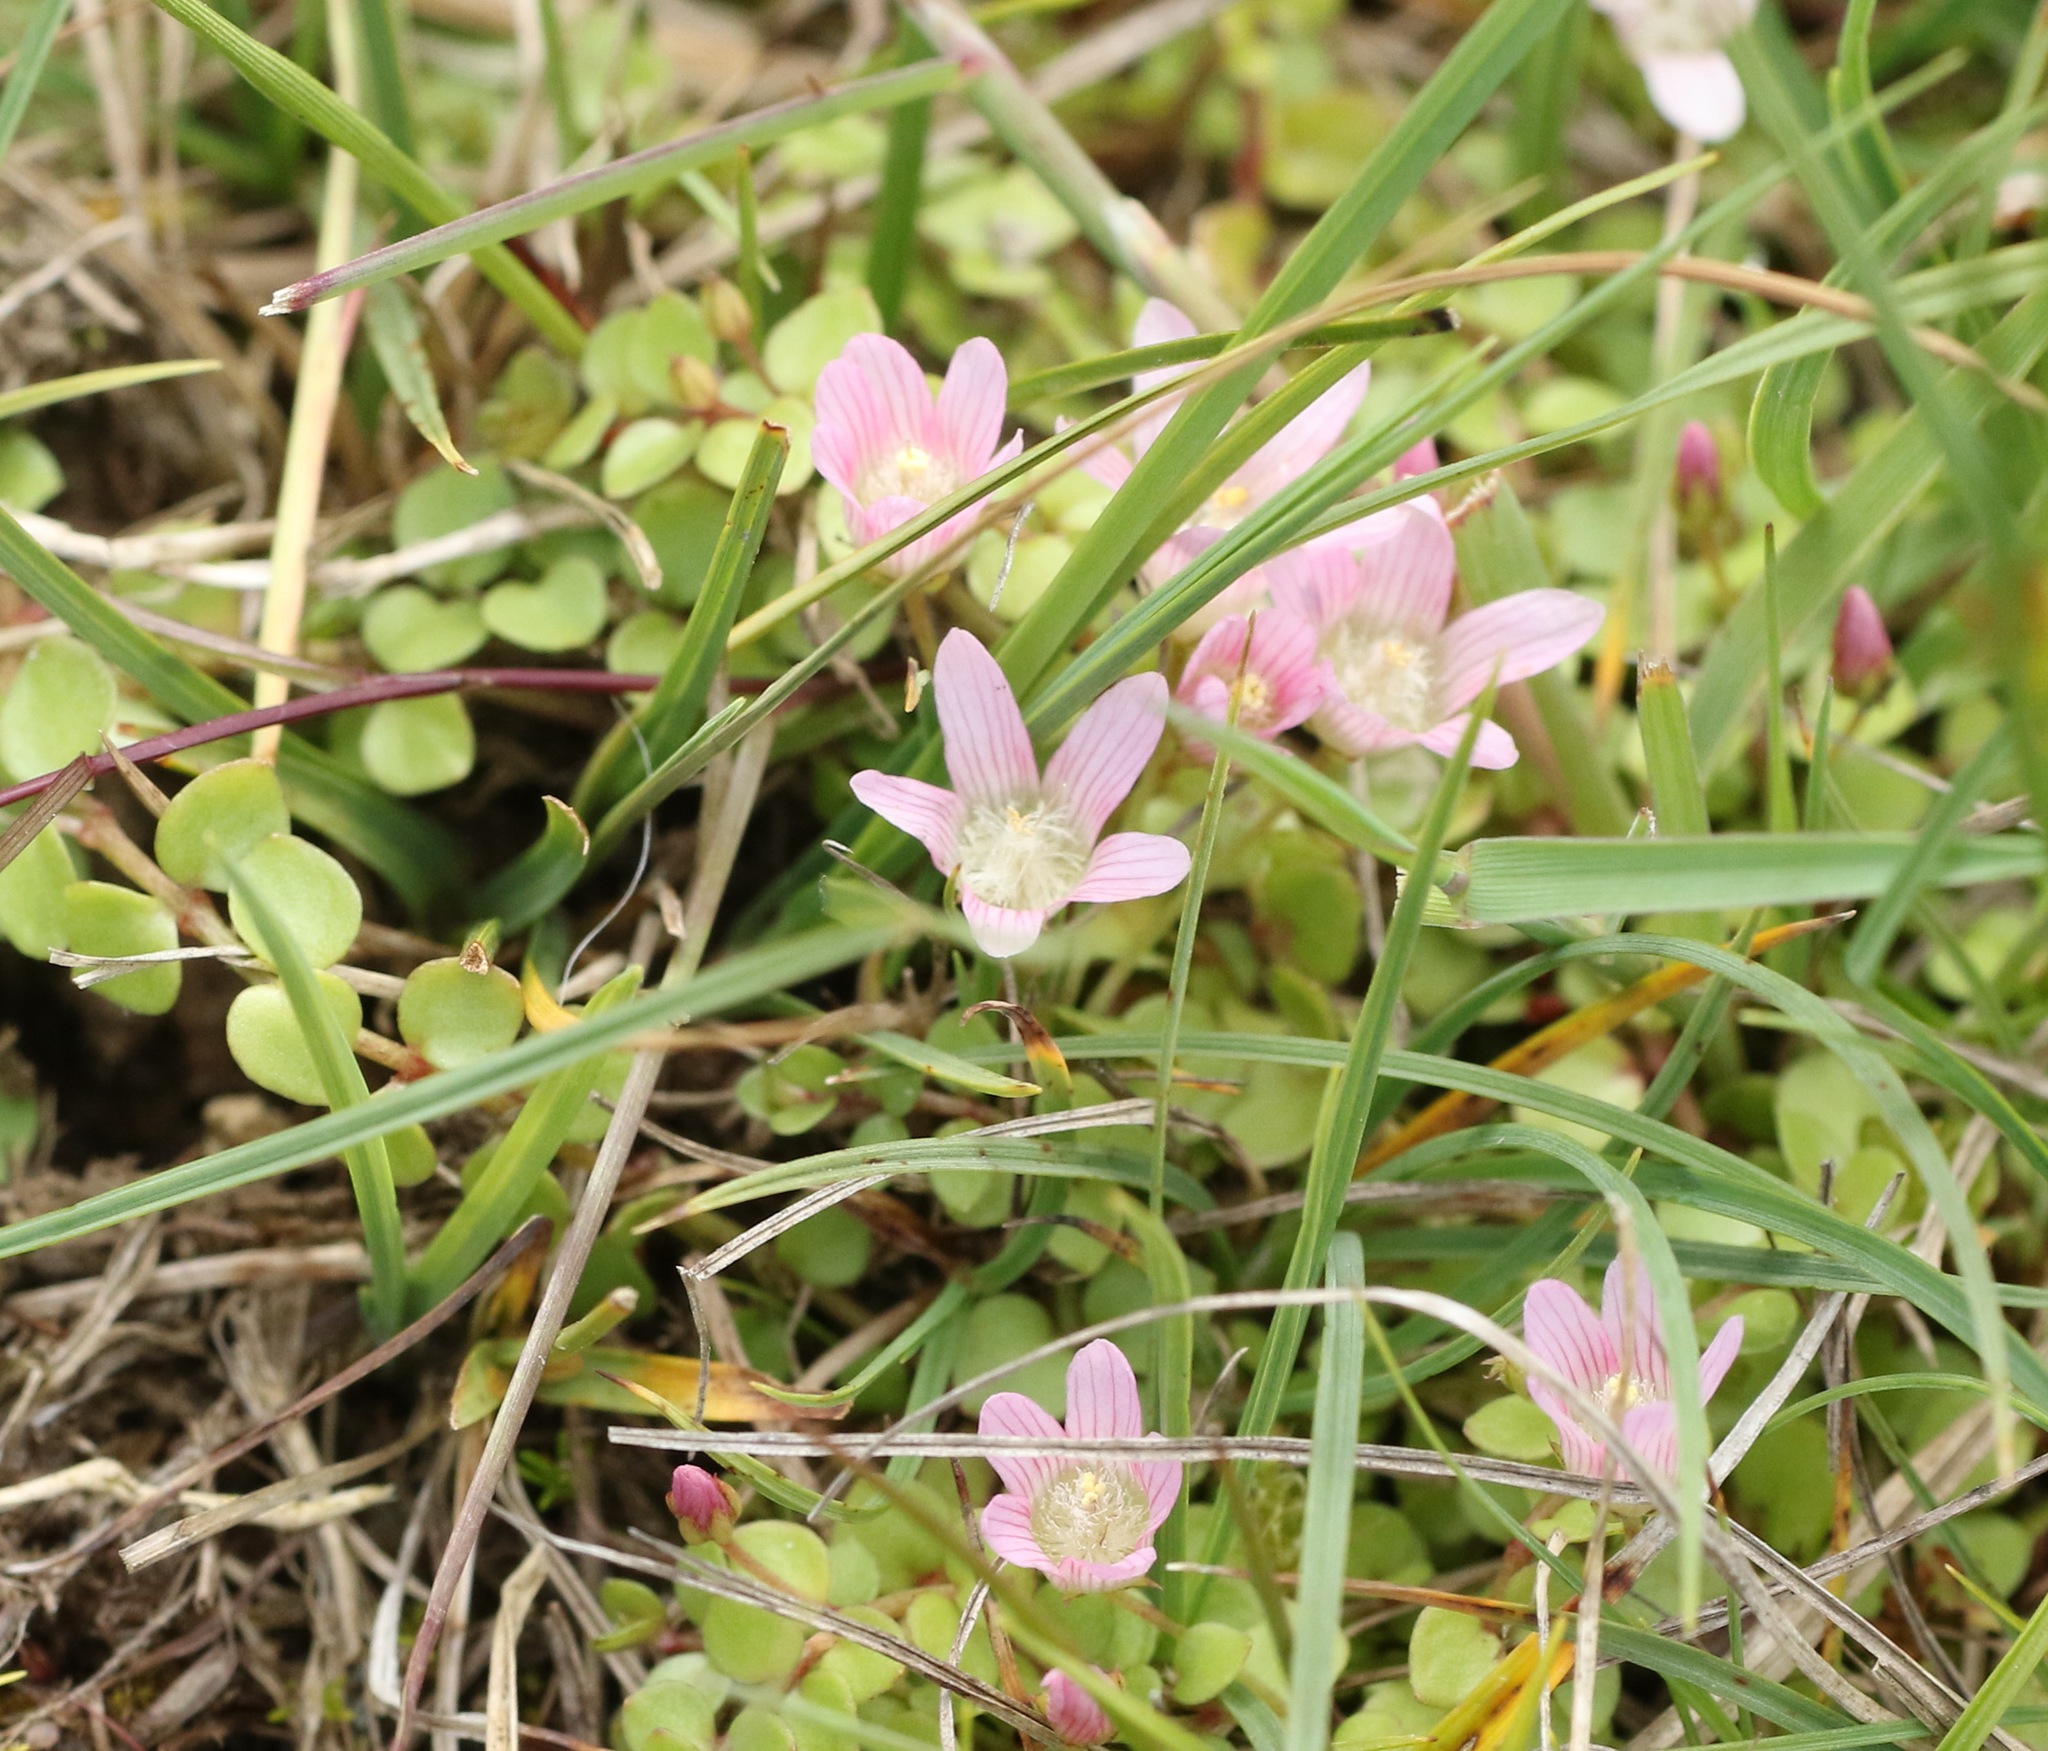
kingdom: Plantae
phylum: Tracheophyta
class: Magnoliopsida
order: Ericales
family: Primulaceae
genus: Lysimachia
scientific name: Lysimachia tenella
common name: European bog pimpernel
